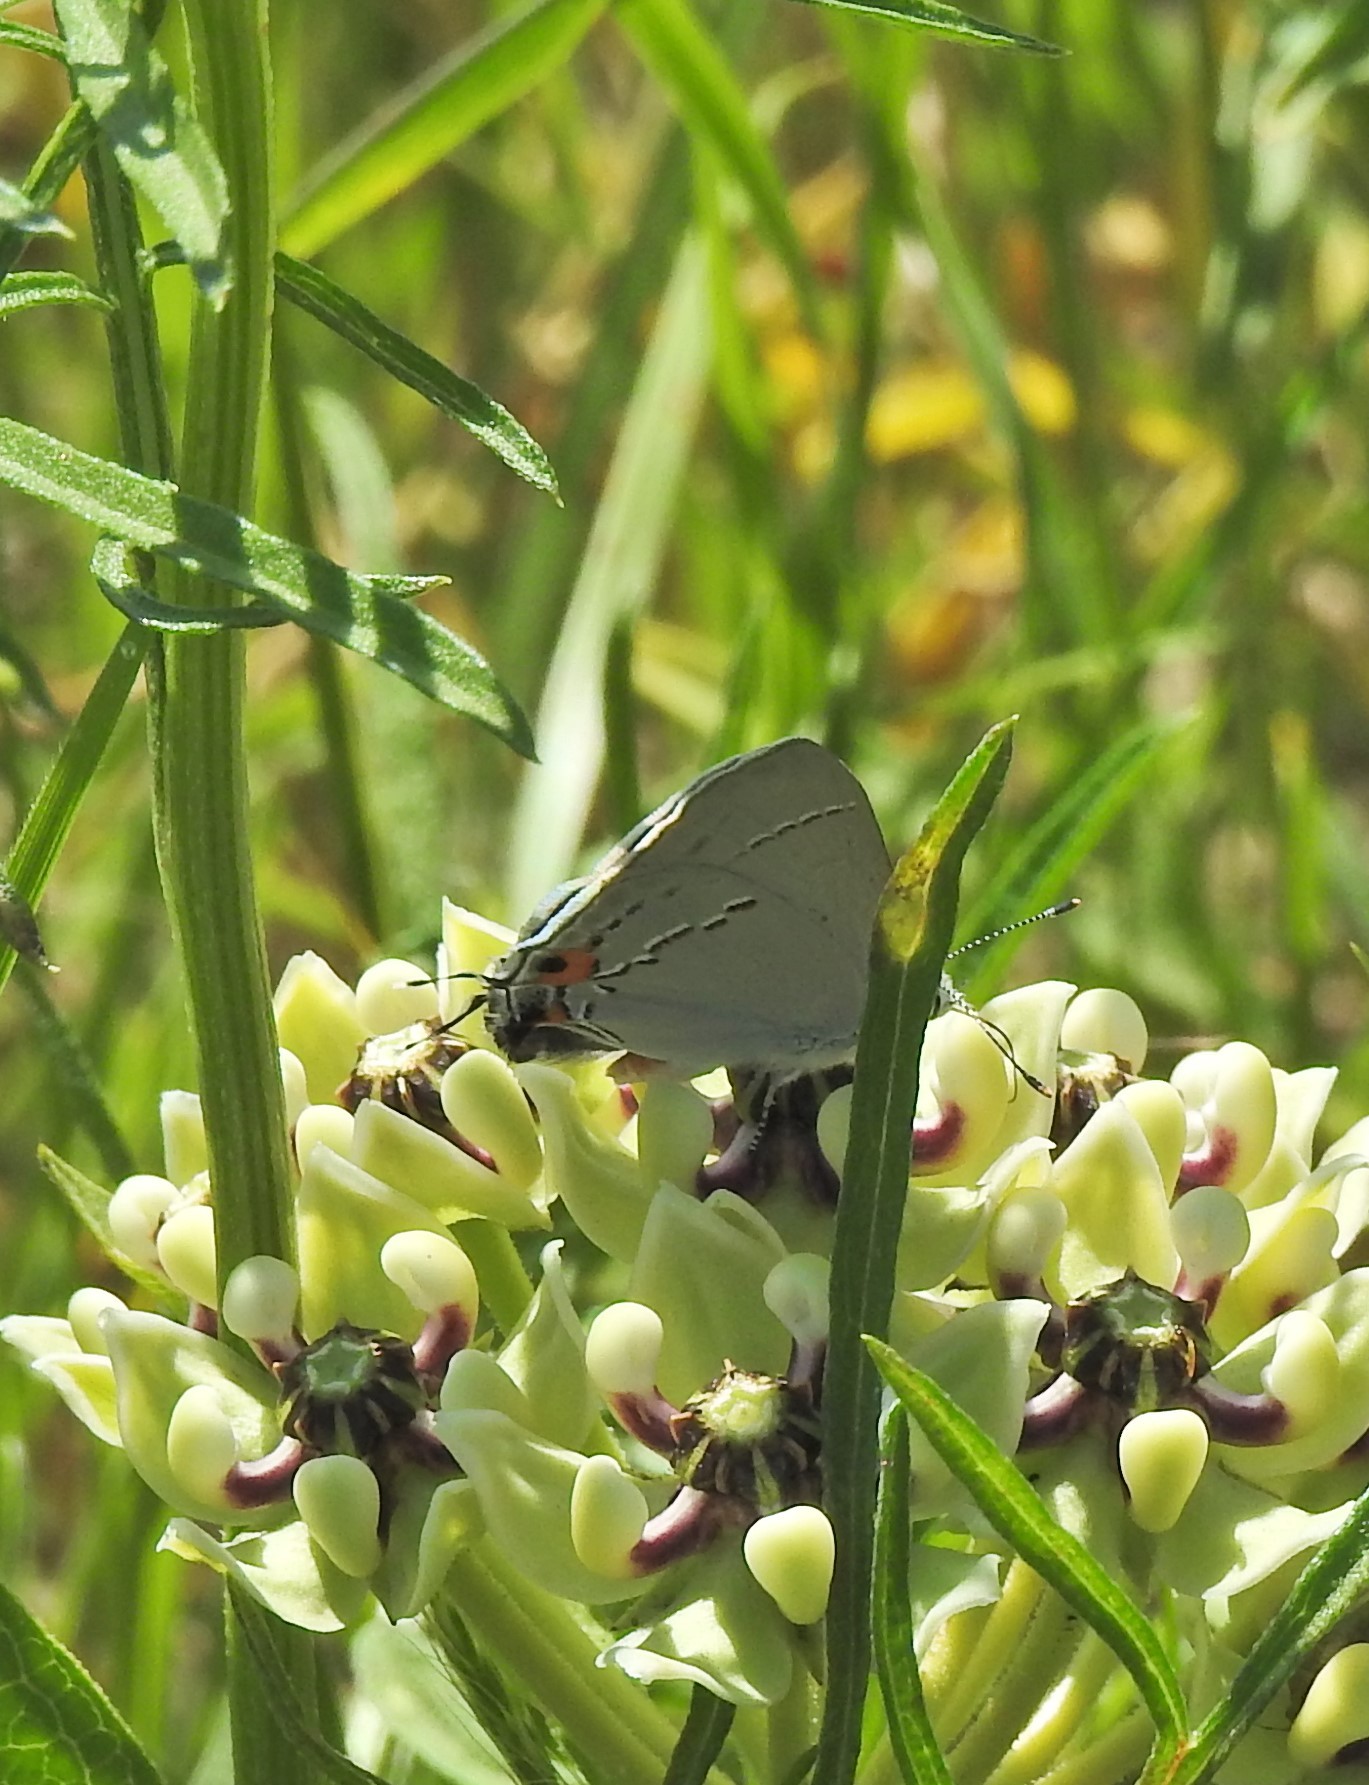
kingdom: Animalia
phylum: Arthropoda
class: Insecta
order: Lepidoptera
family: Lycaenidae
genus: Strymon
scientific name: Strymon melinus
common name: Gray hairstreak
